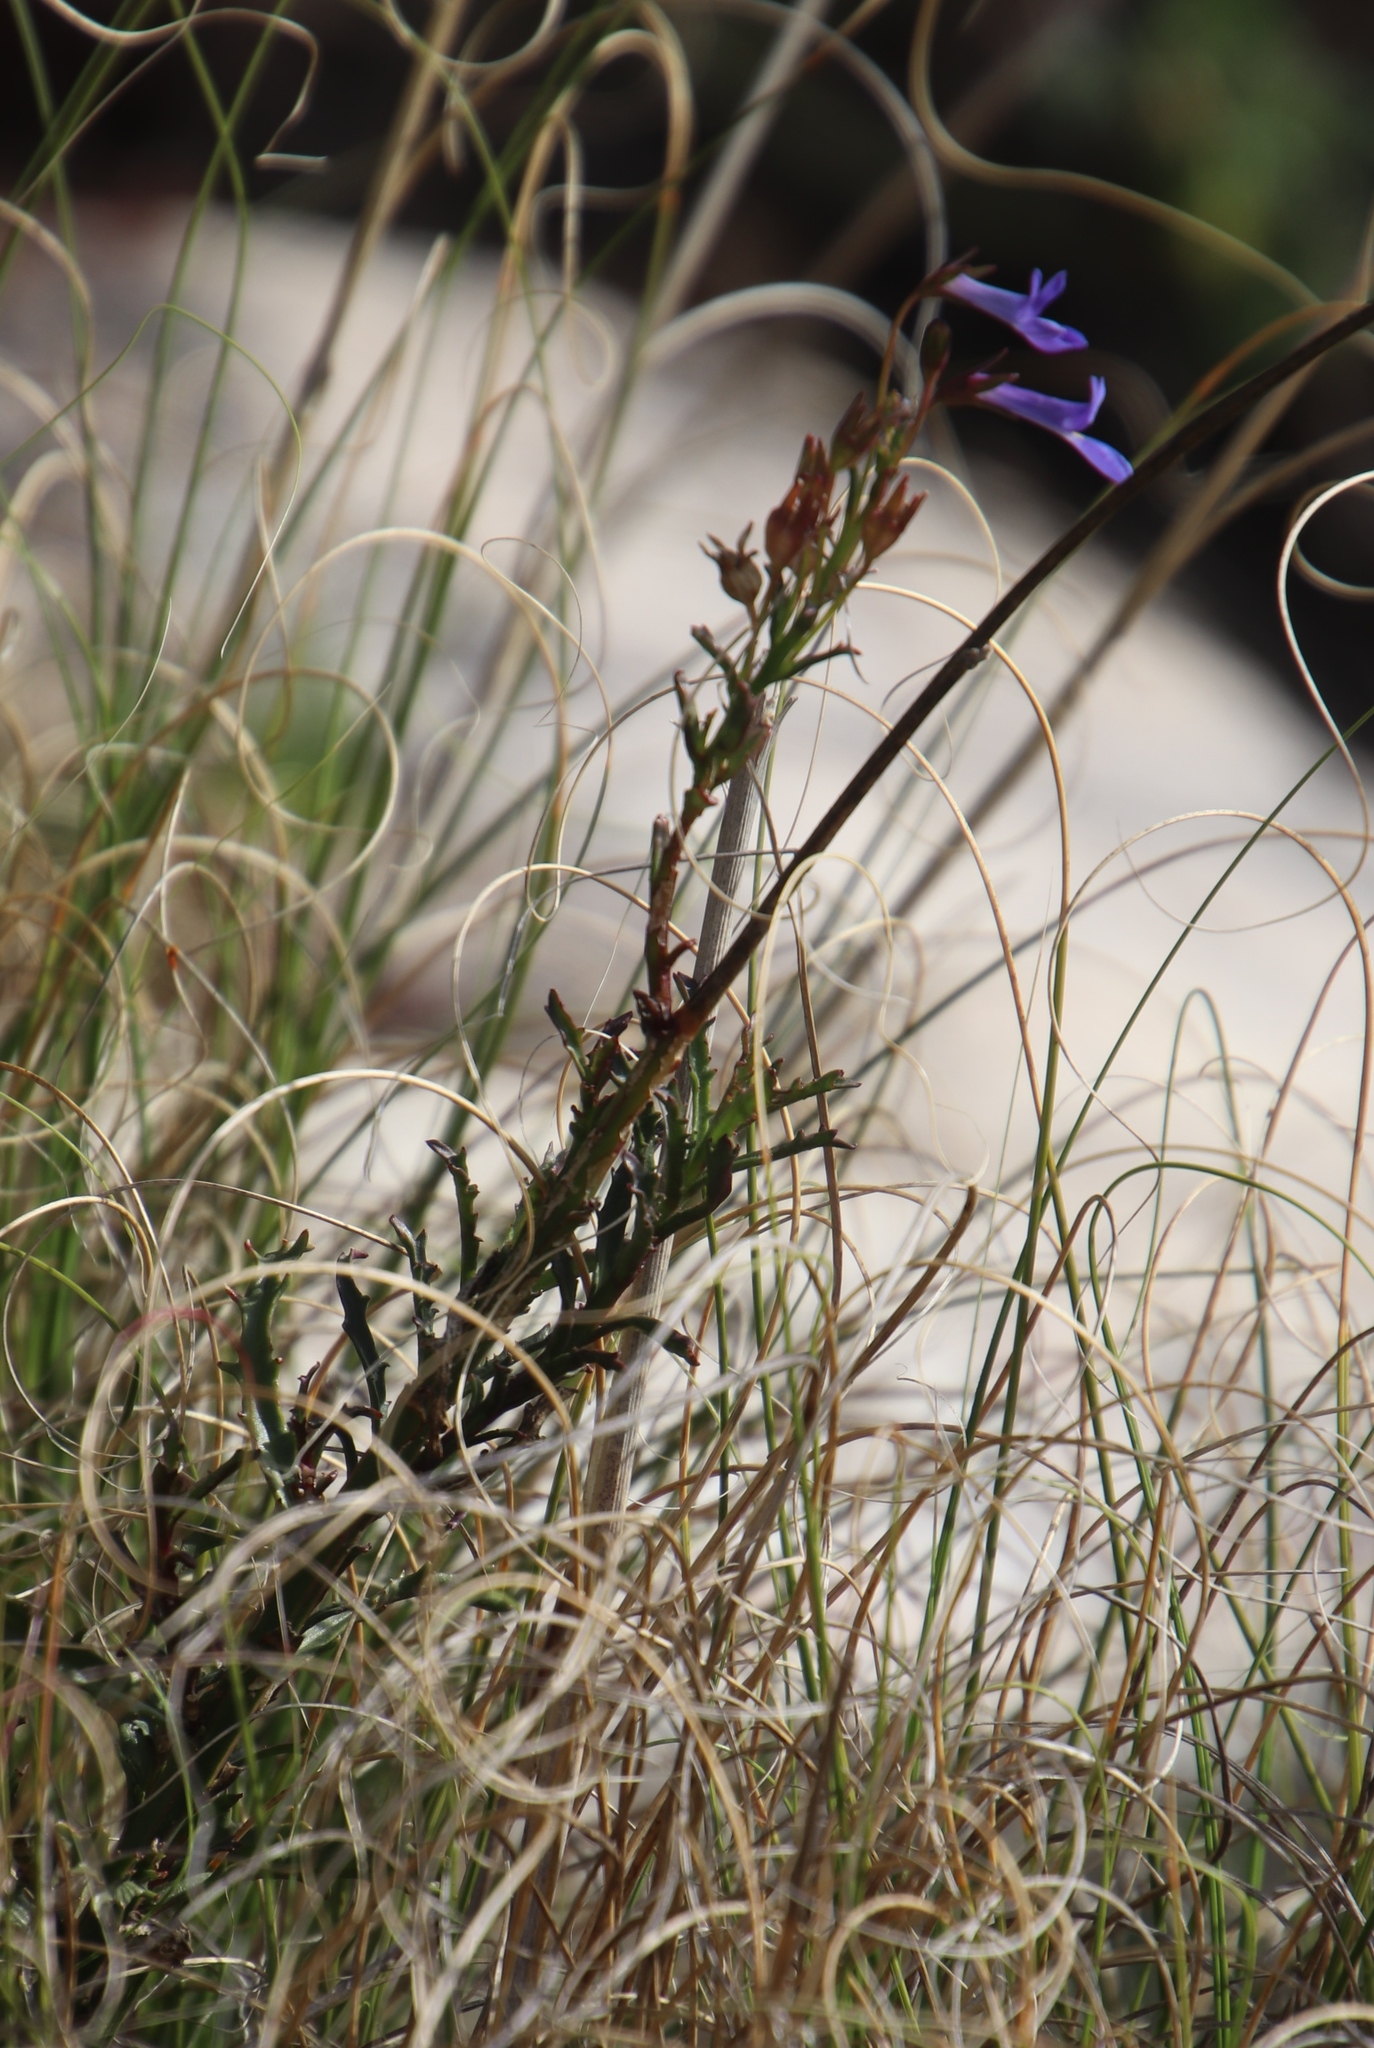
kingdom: Plantae
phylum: Tracheophyta
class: Magnoliopsida
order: Asterales
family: Campanulaceae
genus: Lobelia
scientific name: Lobelia comosa
